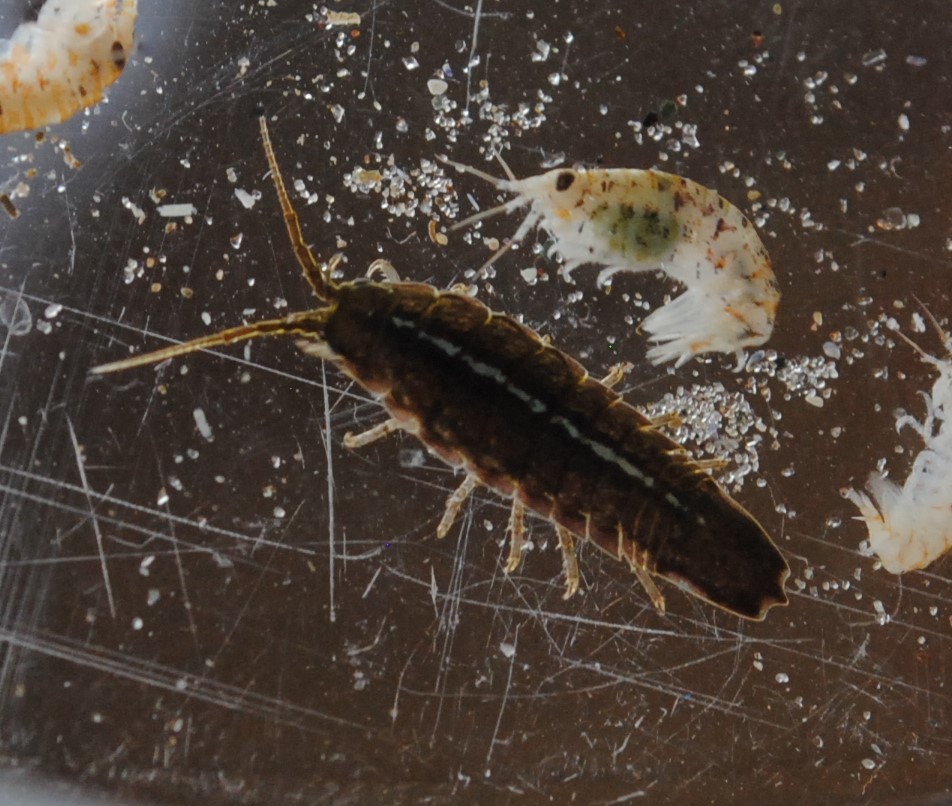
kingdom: Animalia
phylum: Arthropoda
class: Malacostraca
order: Isopoda
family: Idoteidae
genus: Idotea
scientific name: Idotea balthica
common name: Baltic isopod
